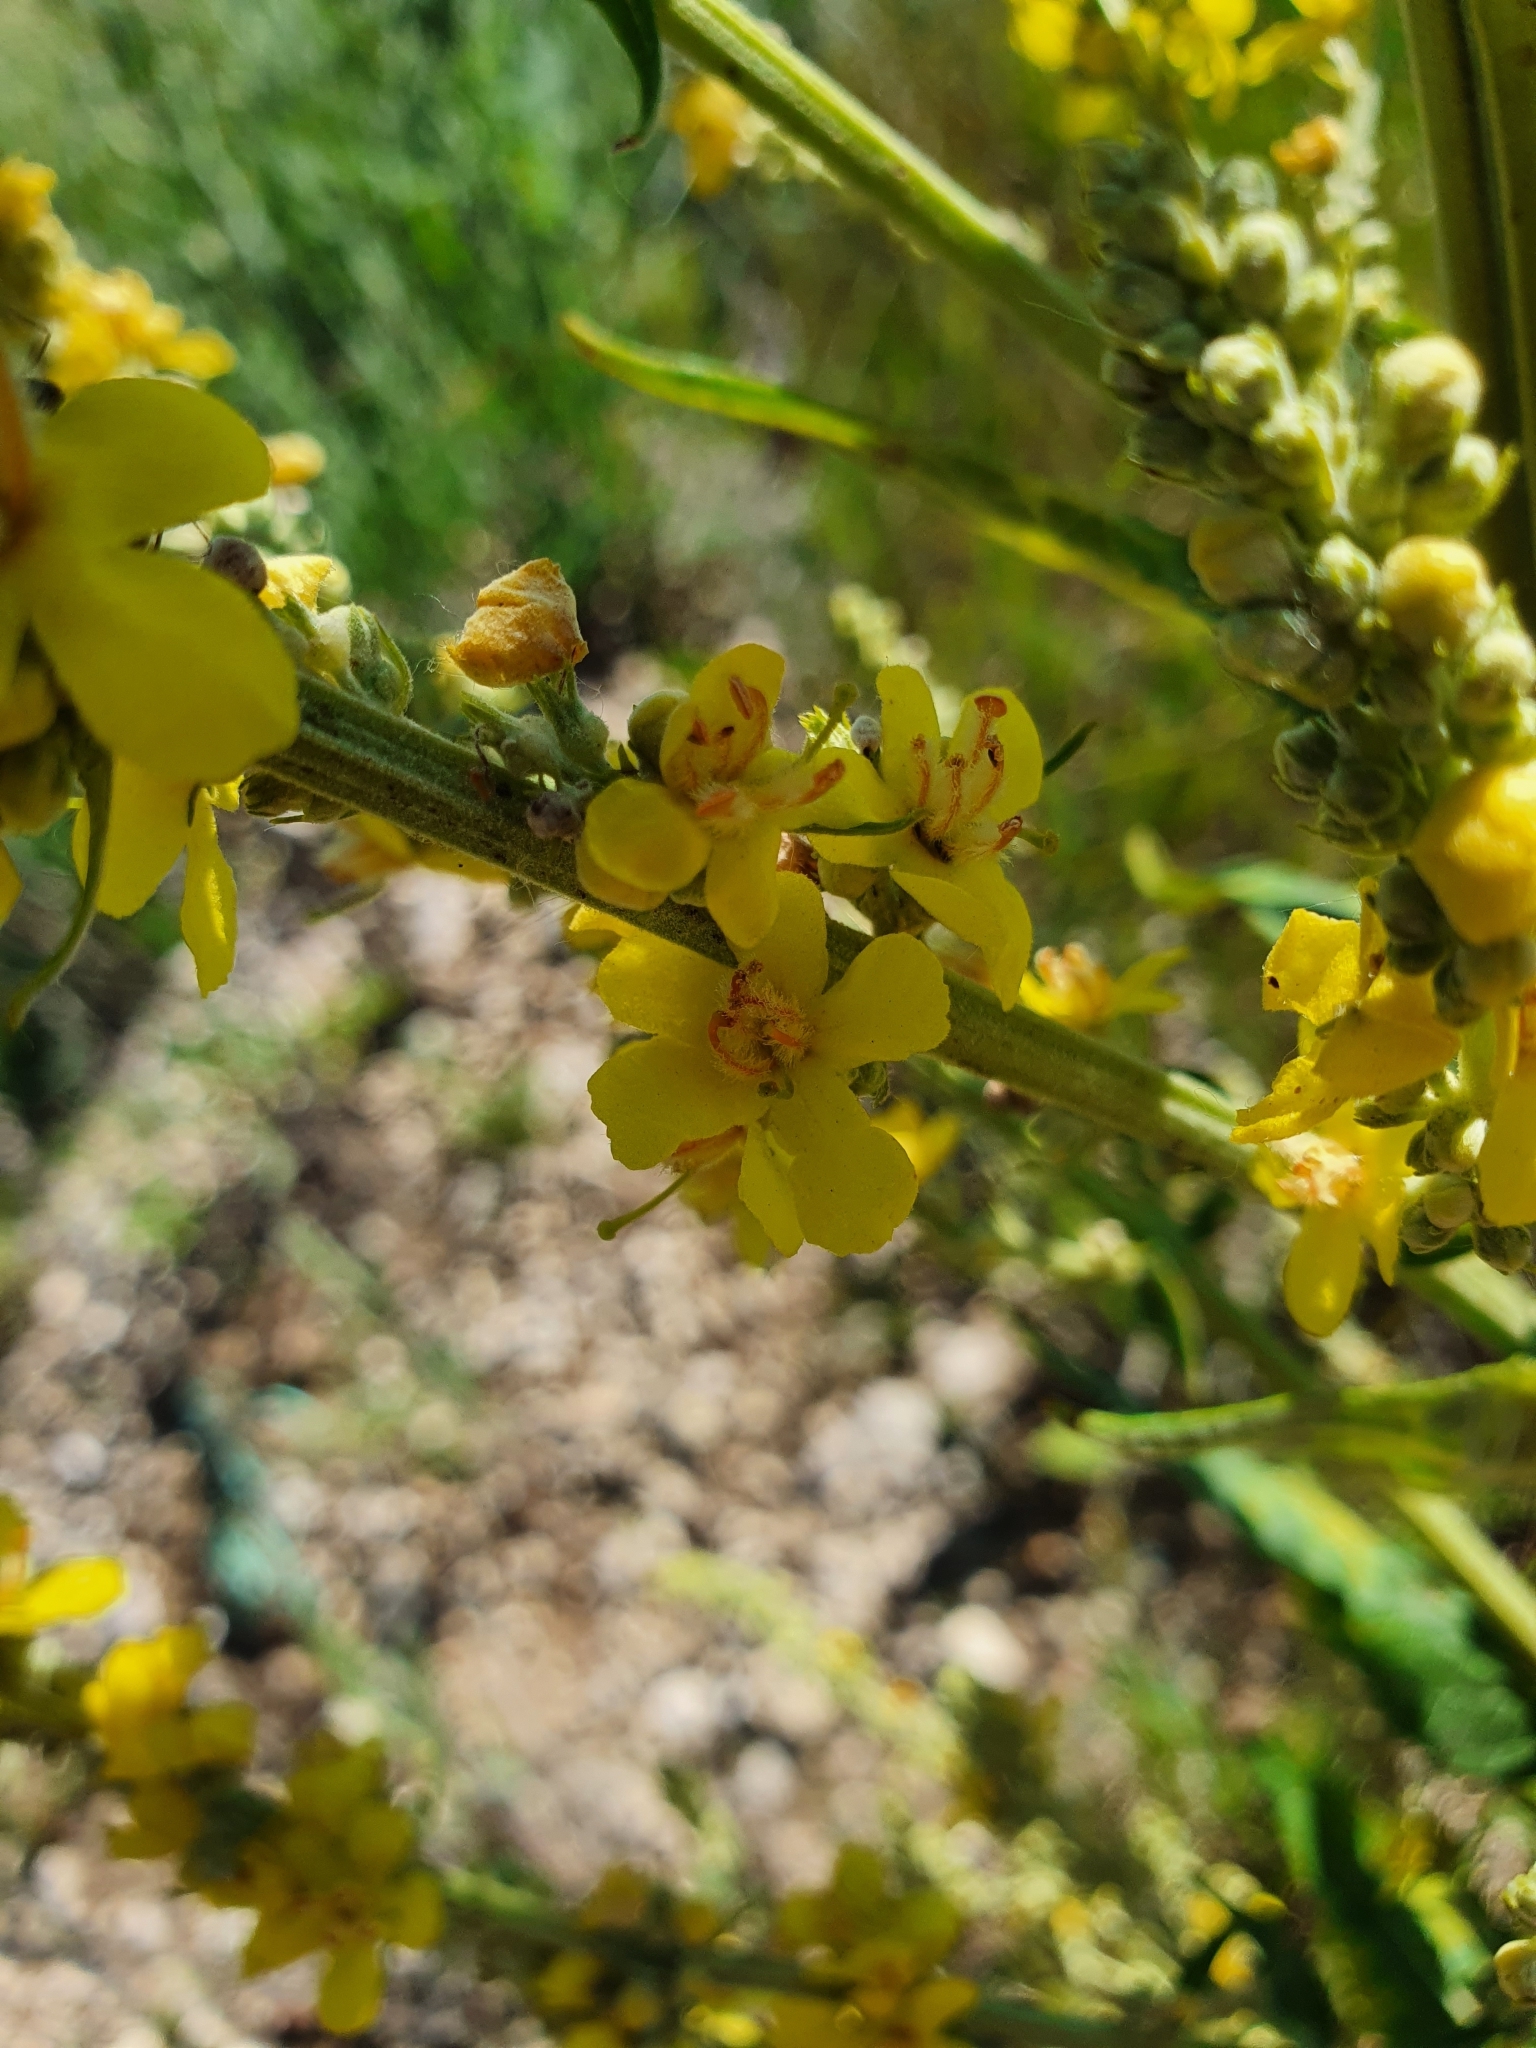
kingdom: Plantae
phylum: Tracheophyta
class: Magnoliopsida
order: Lamiales
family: Scrophulariaceae
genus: Verbascum
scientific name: Verbascum lychnitis
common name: White mullein
